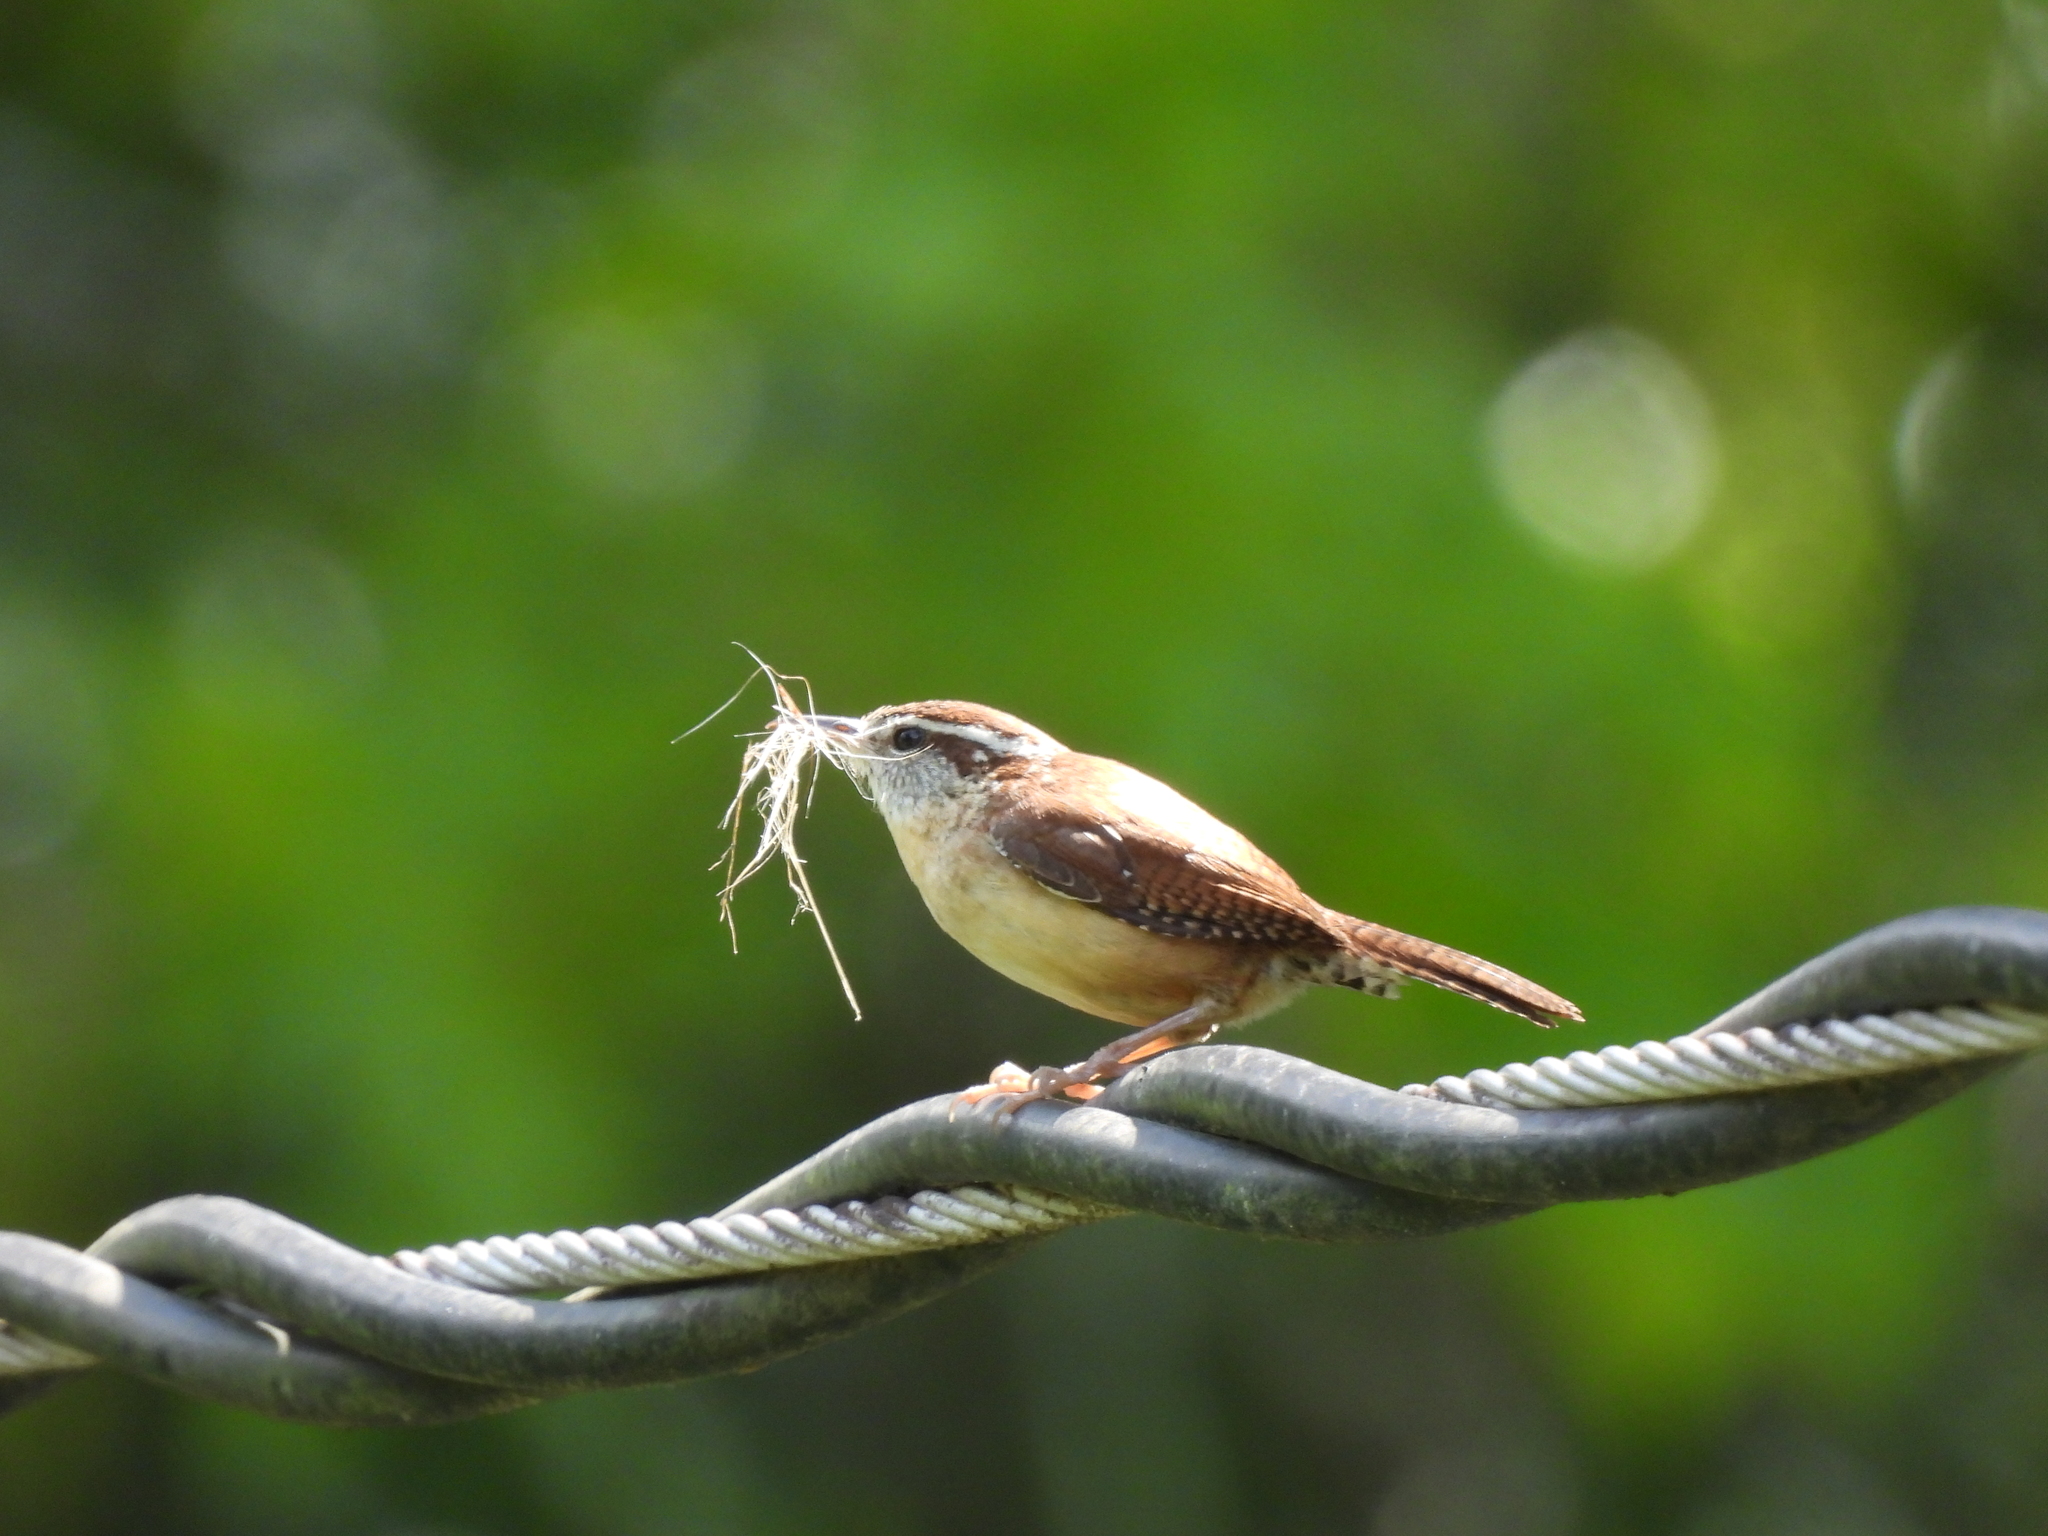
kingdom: Animalia
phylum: Chordata
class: Aves
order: Passeriformes
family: Troglodytidae
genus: Thryothorus
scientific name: Thryothorus ludovicianus
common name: Carolina wren
